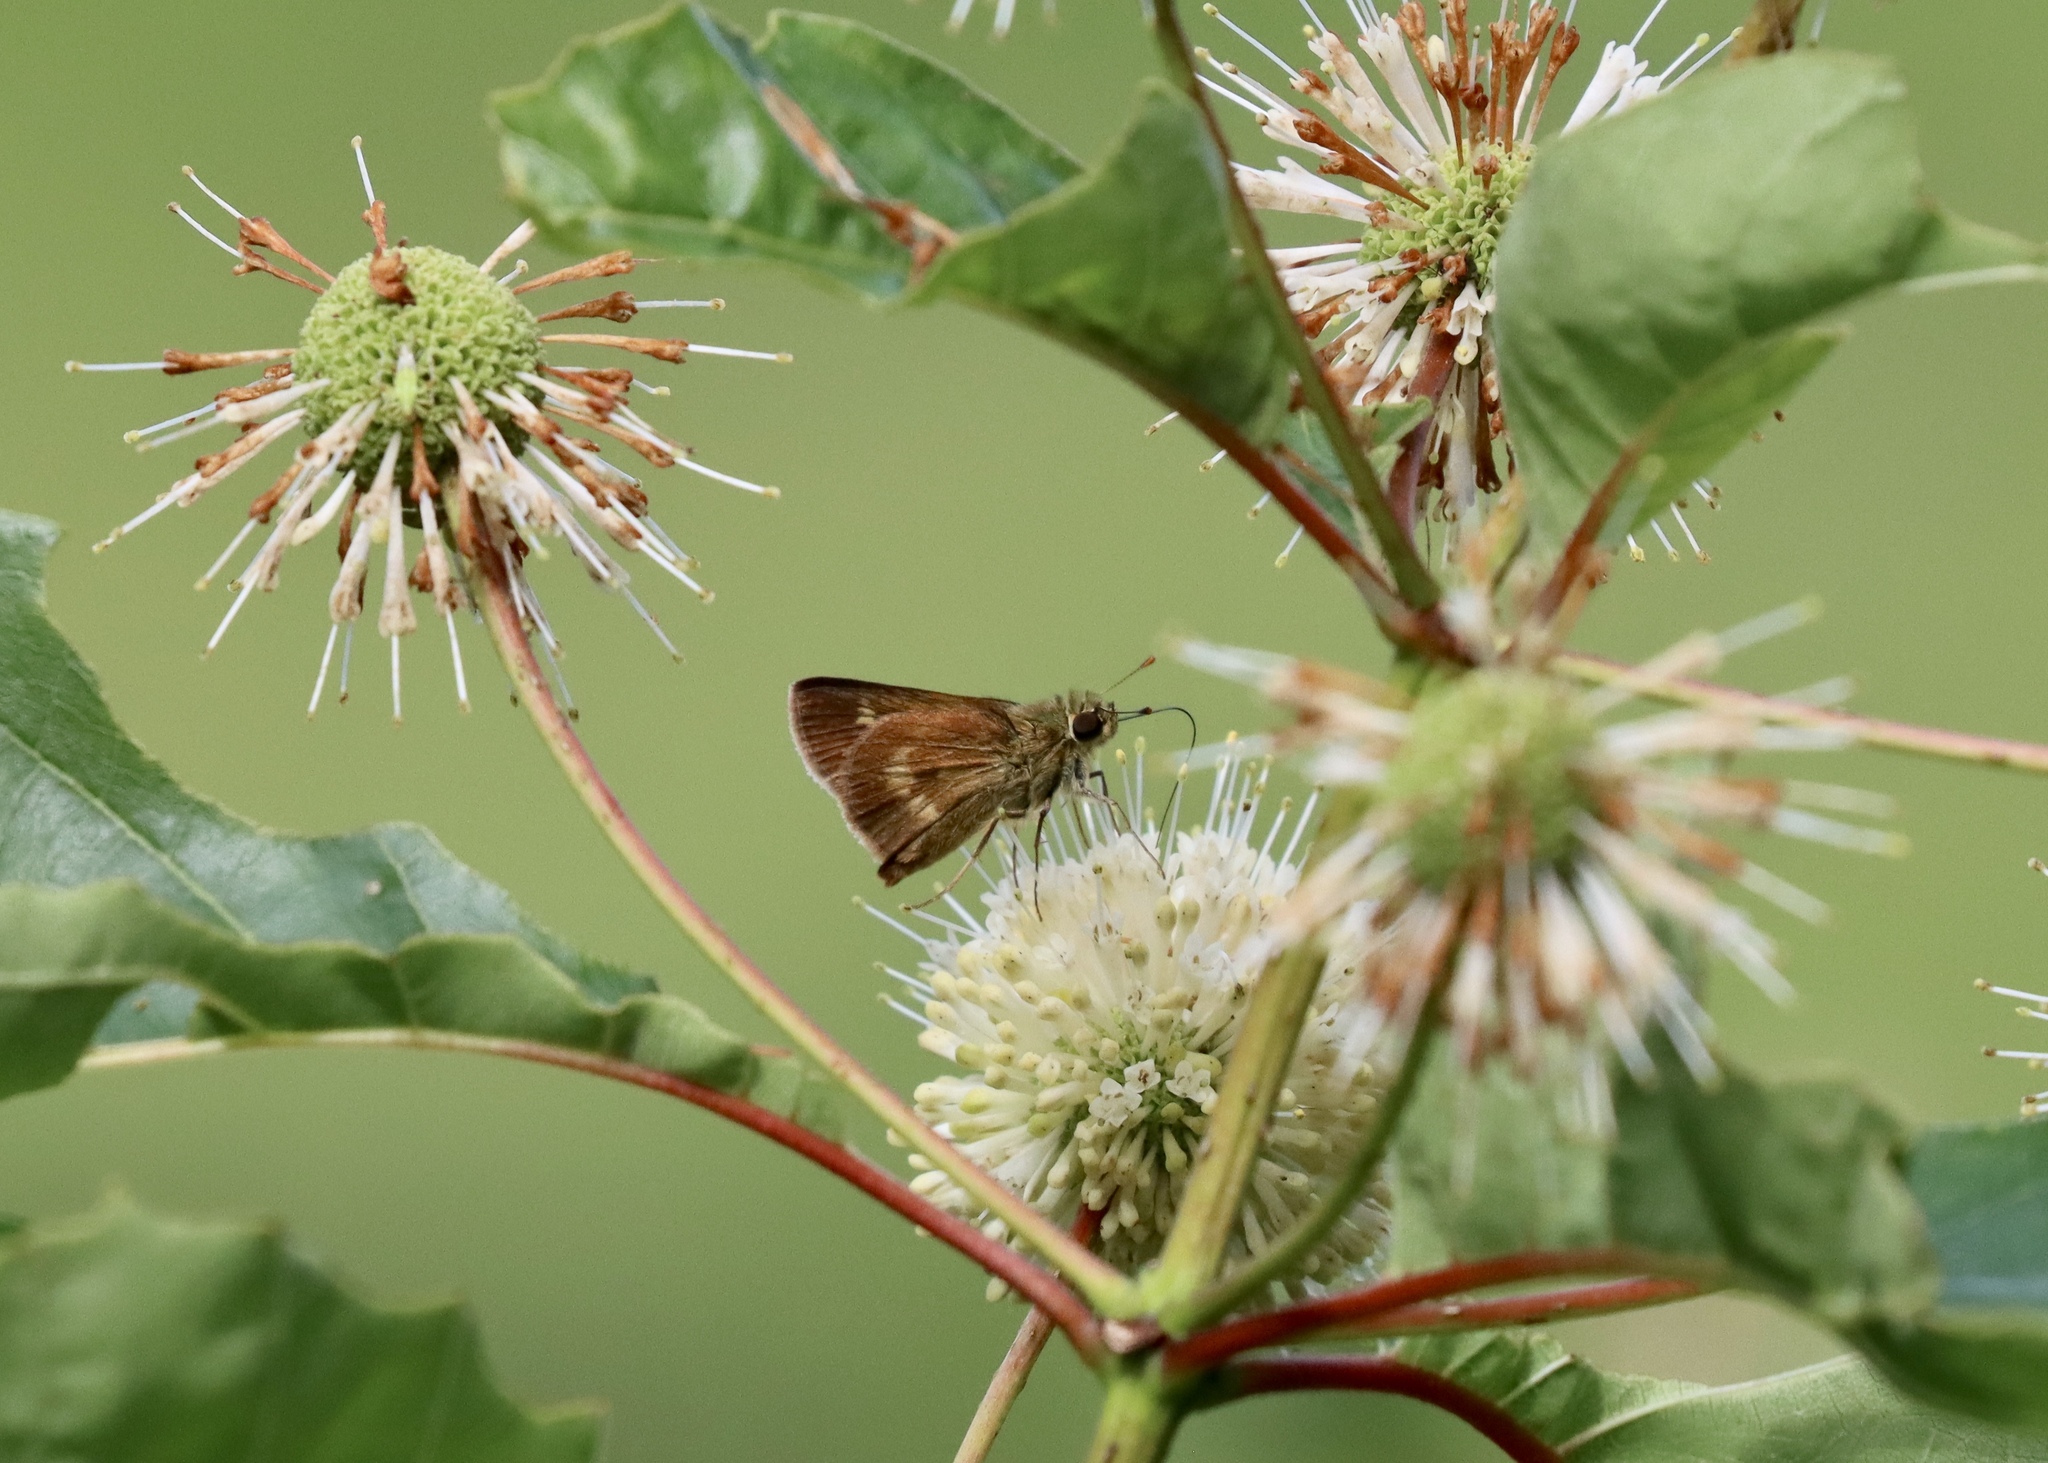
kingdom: Animalia
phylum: Arthropoda
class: Insecta
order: Lepidoptera
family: Hesperiidae
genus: Polites
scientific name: Polites egeremet
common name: Northern broken-dash
